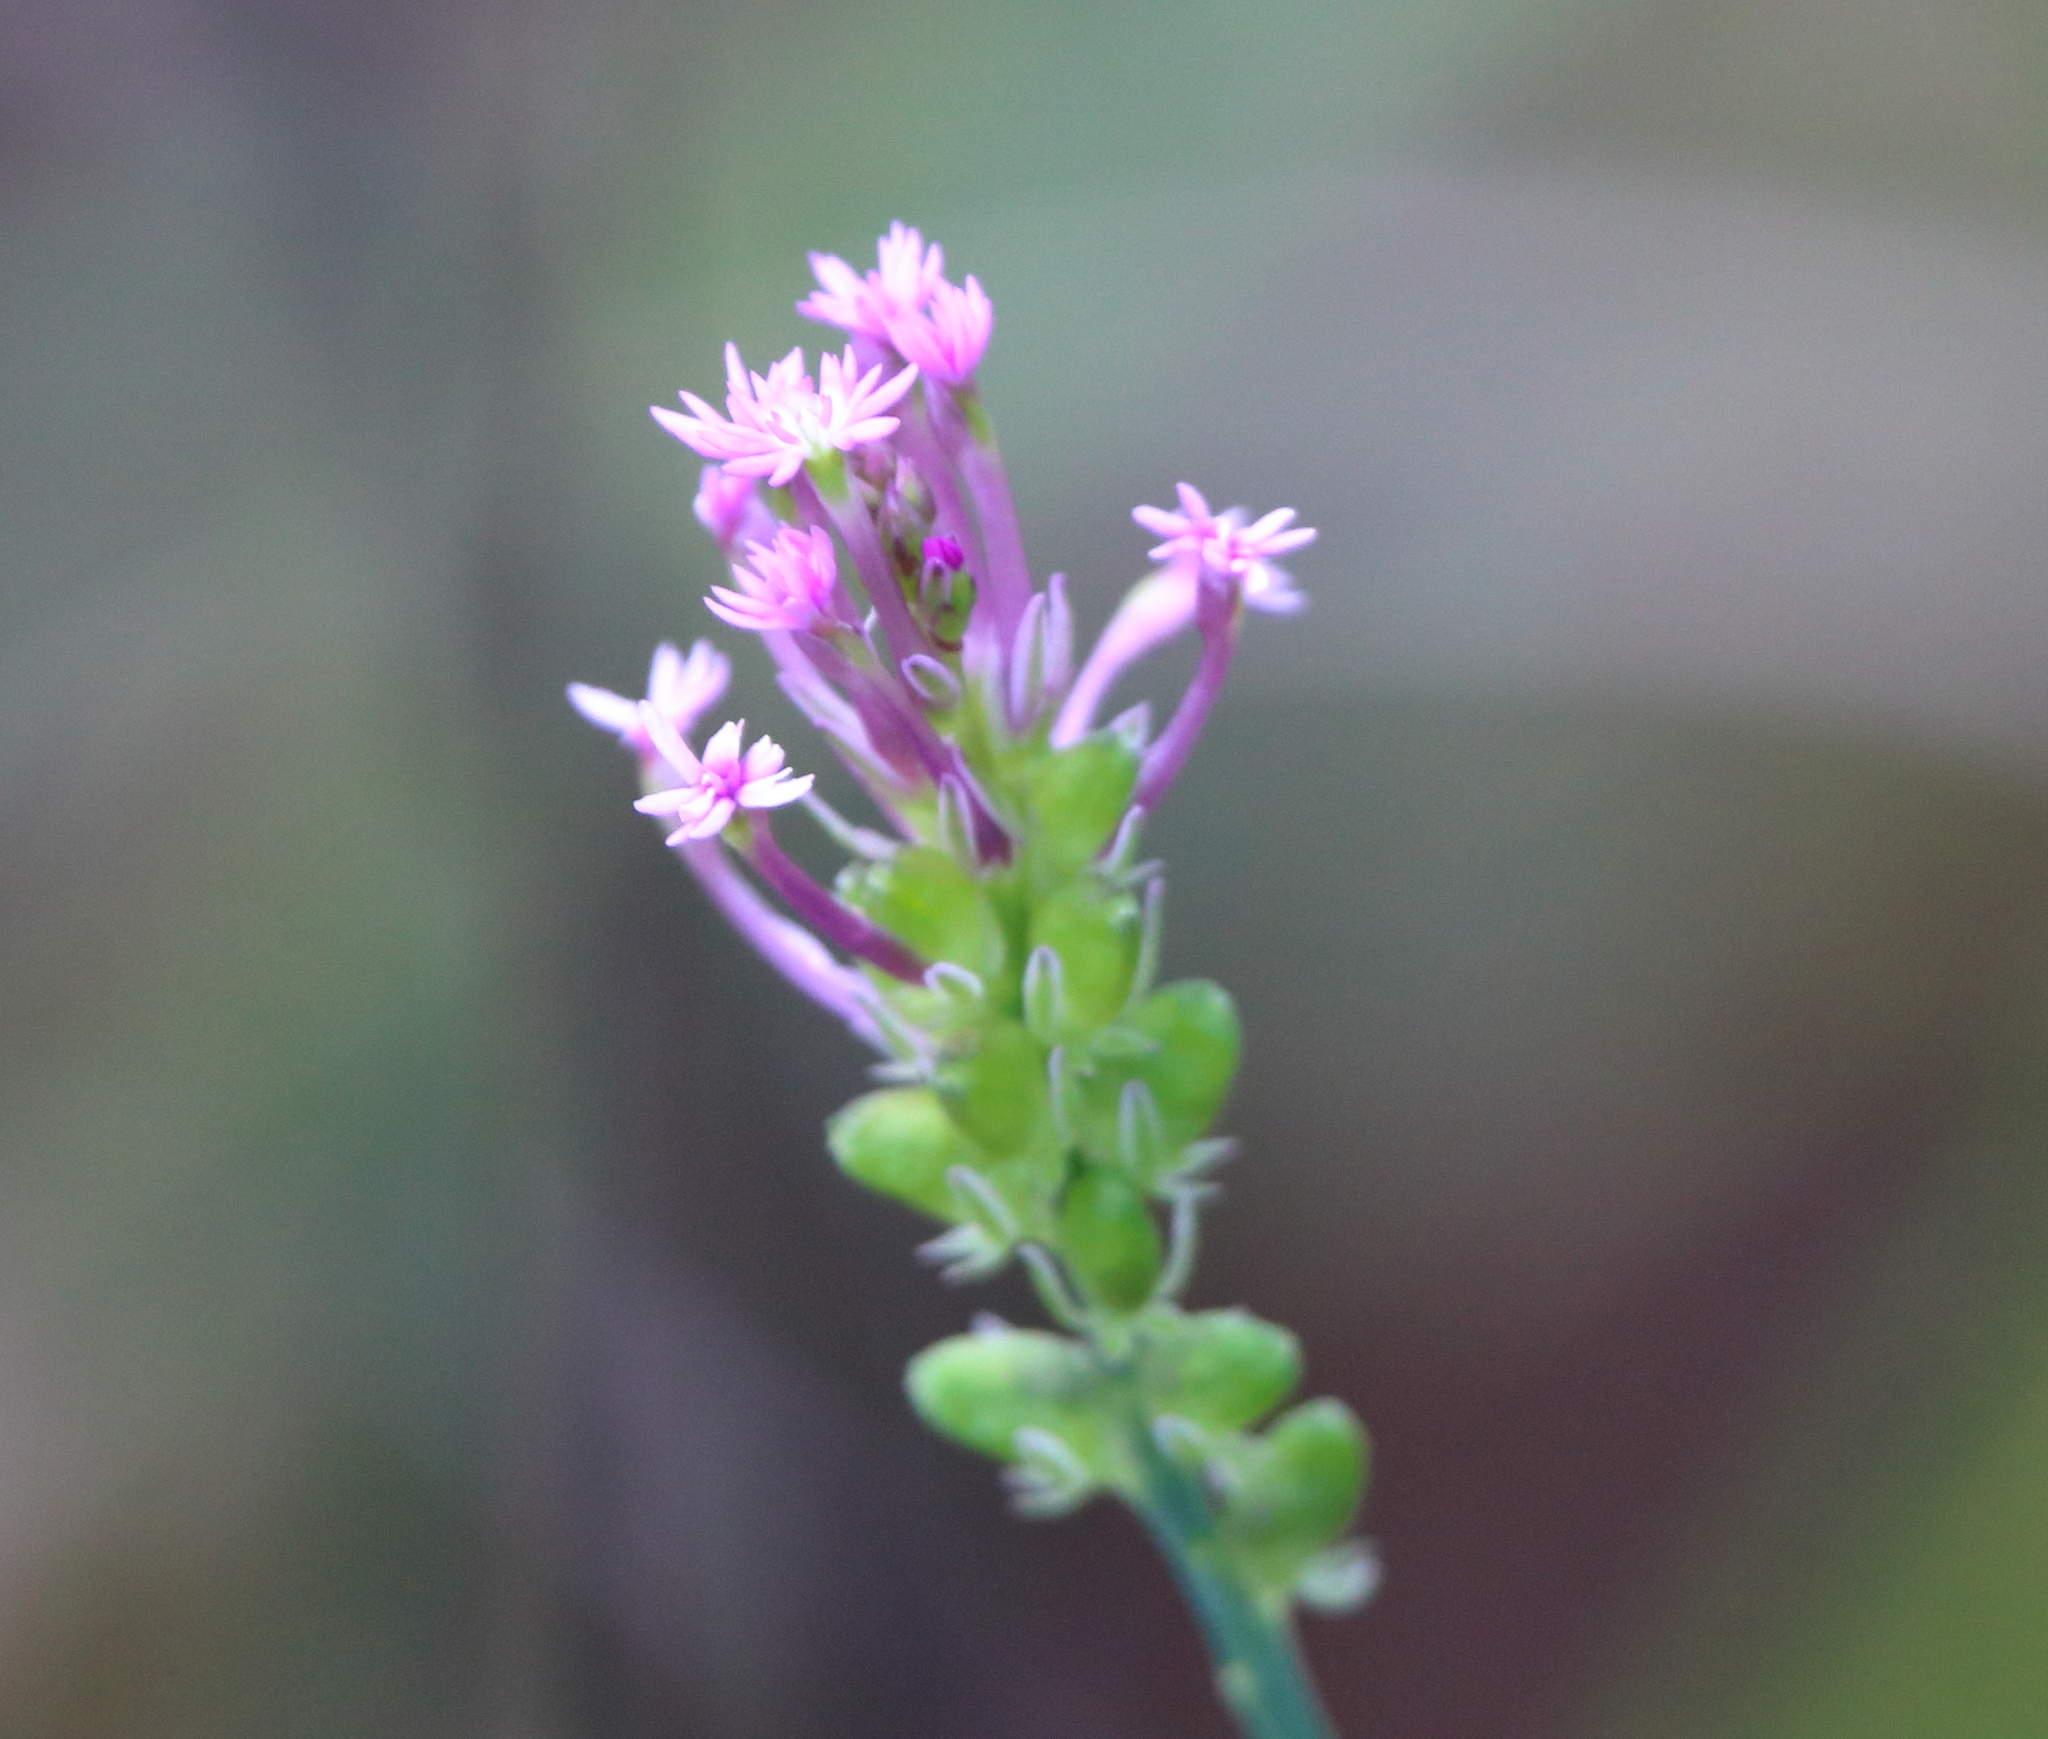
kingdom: Plantae
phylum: Tracheophyta
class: Magnoliopsida
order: Fabales
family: Polygalaceae
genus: Polygala
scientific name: Polygala incarnata
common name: Pink milkwort
